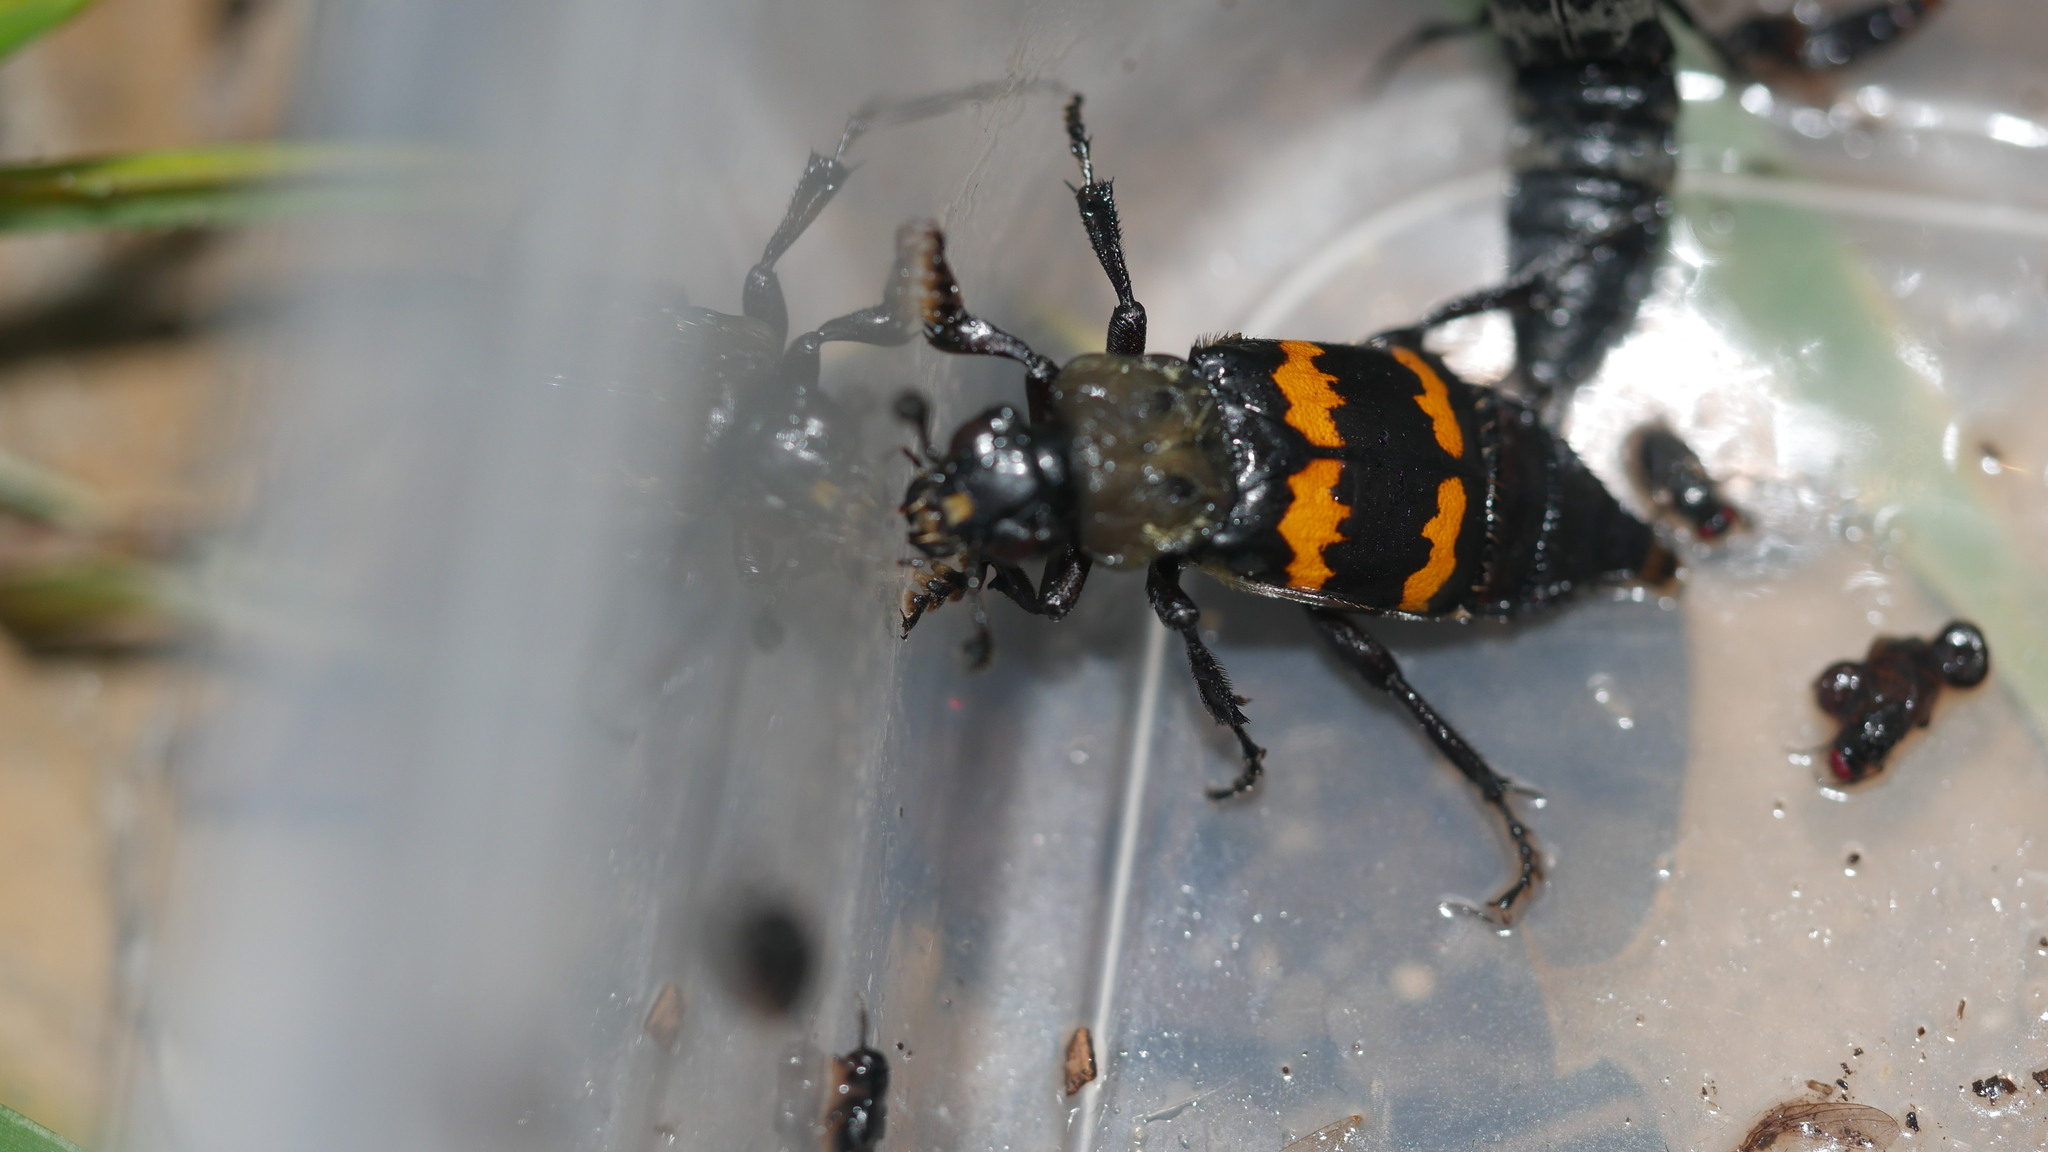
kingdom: Animalia
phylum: Arthropoda
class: Insecta
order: Coleoptera
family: Staphylinidae
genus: Nicrophorus
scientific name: Nicrophorus tomentosus
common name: Tomentose burying beetle
